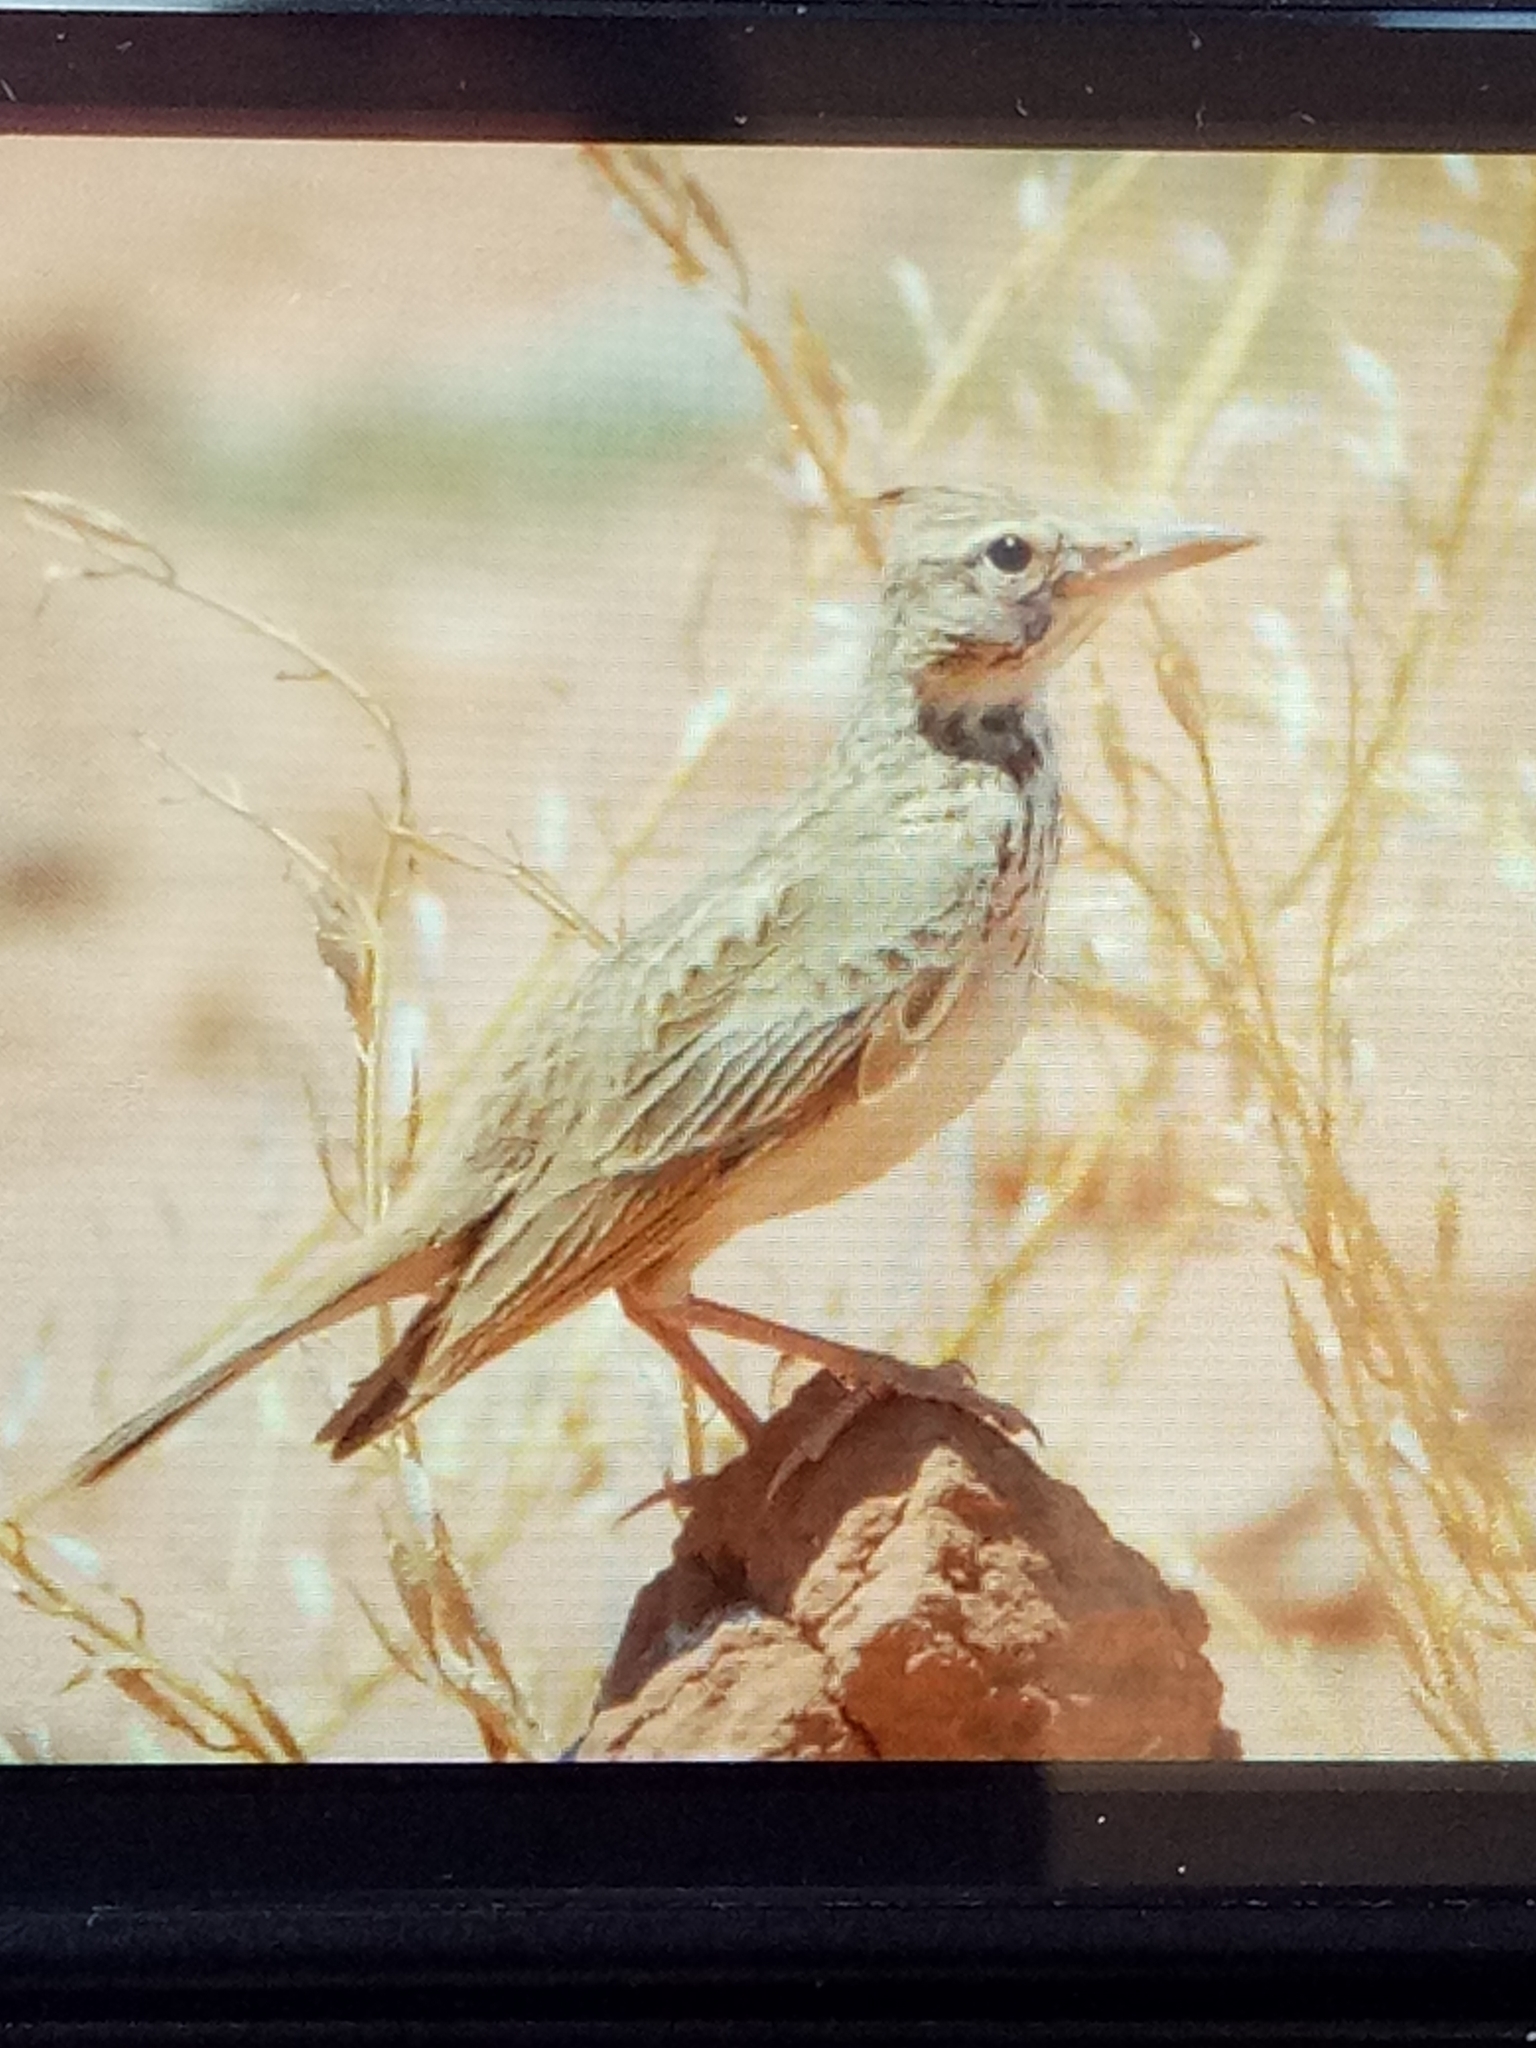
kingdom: Animalia
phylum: Chordata
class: Aves
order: Passeriformes
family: Alaudidae
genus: Galerida
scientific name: Galerida cristata
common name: Crested lark
